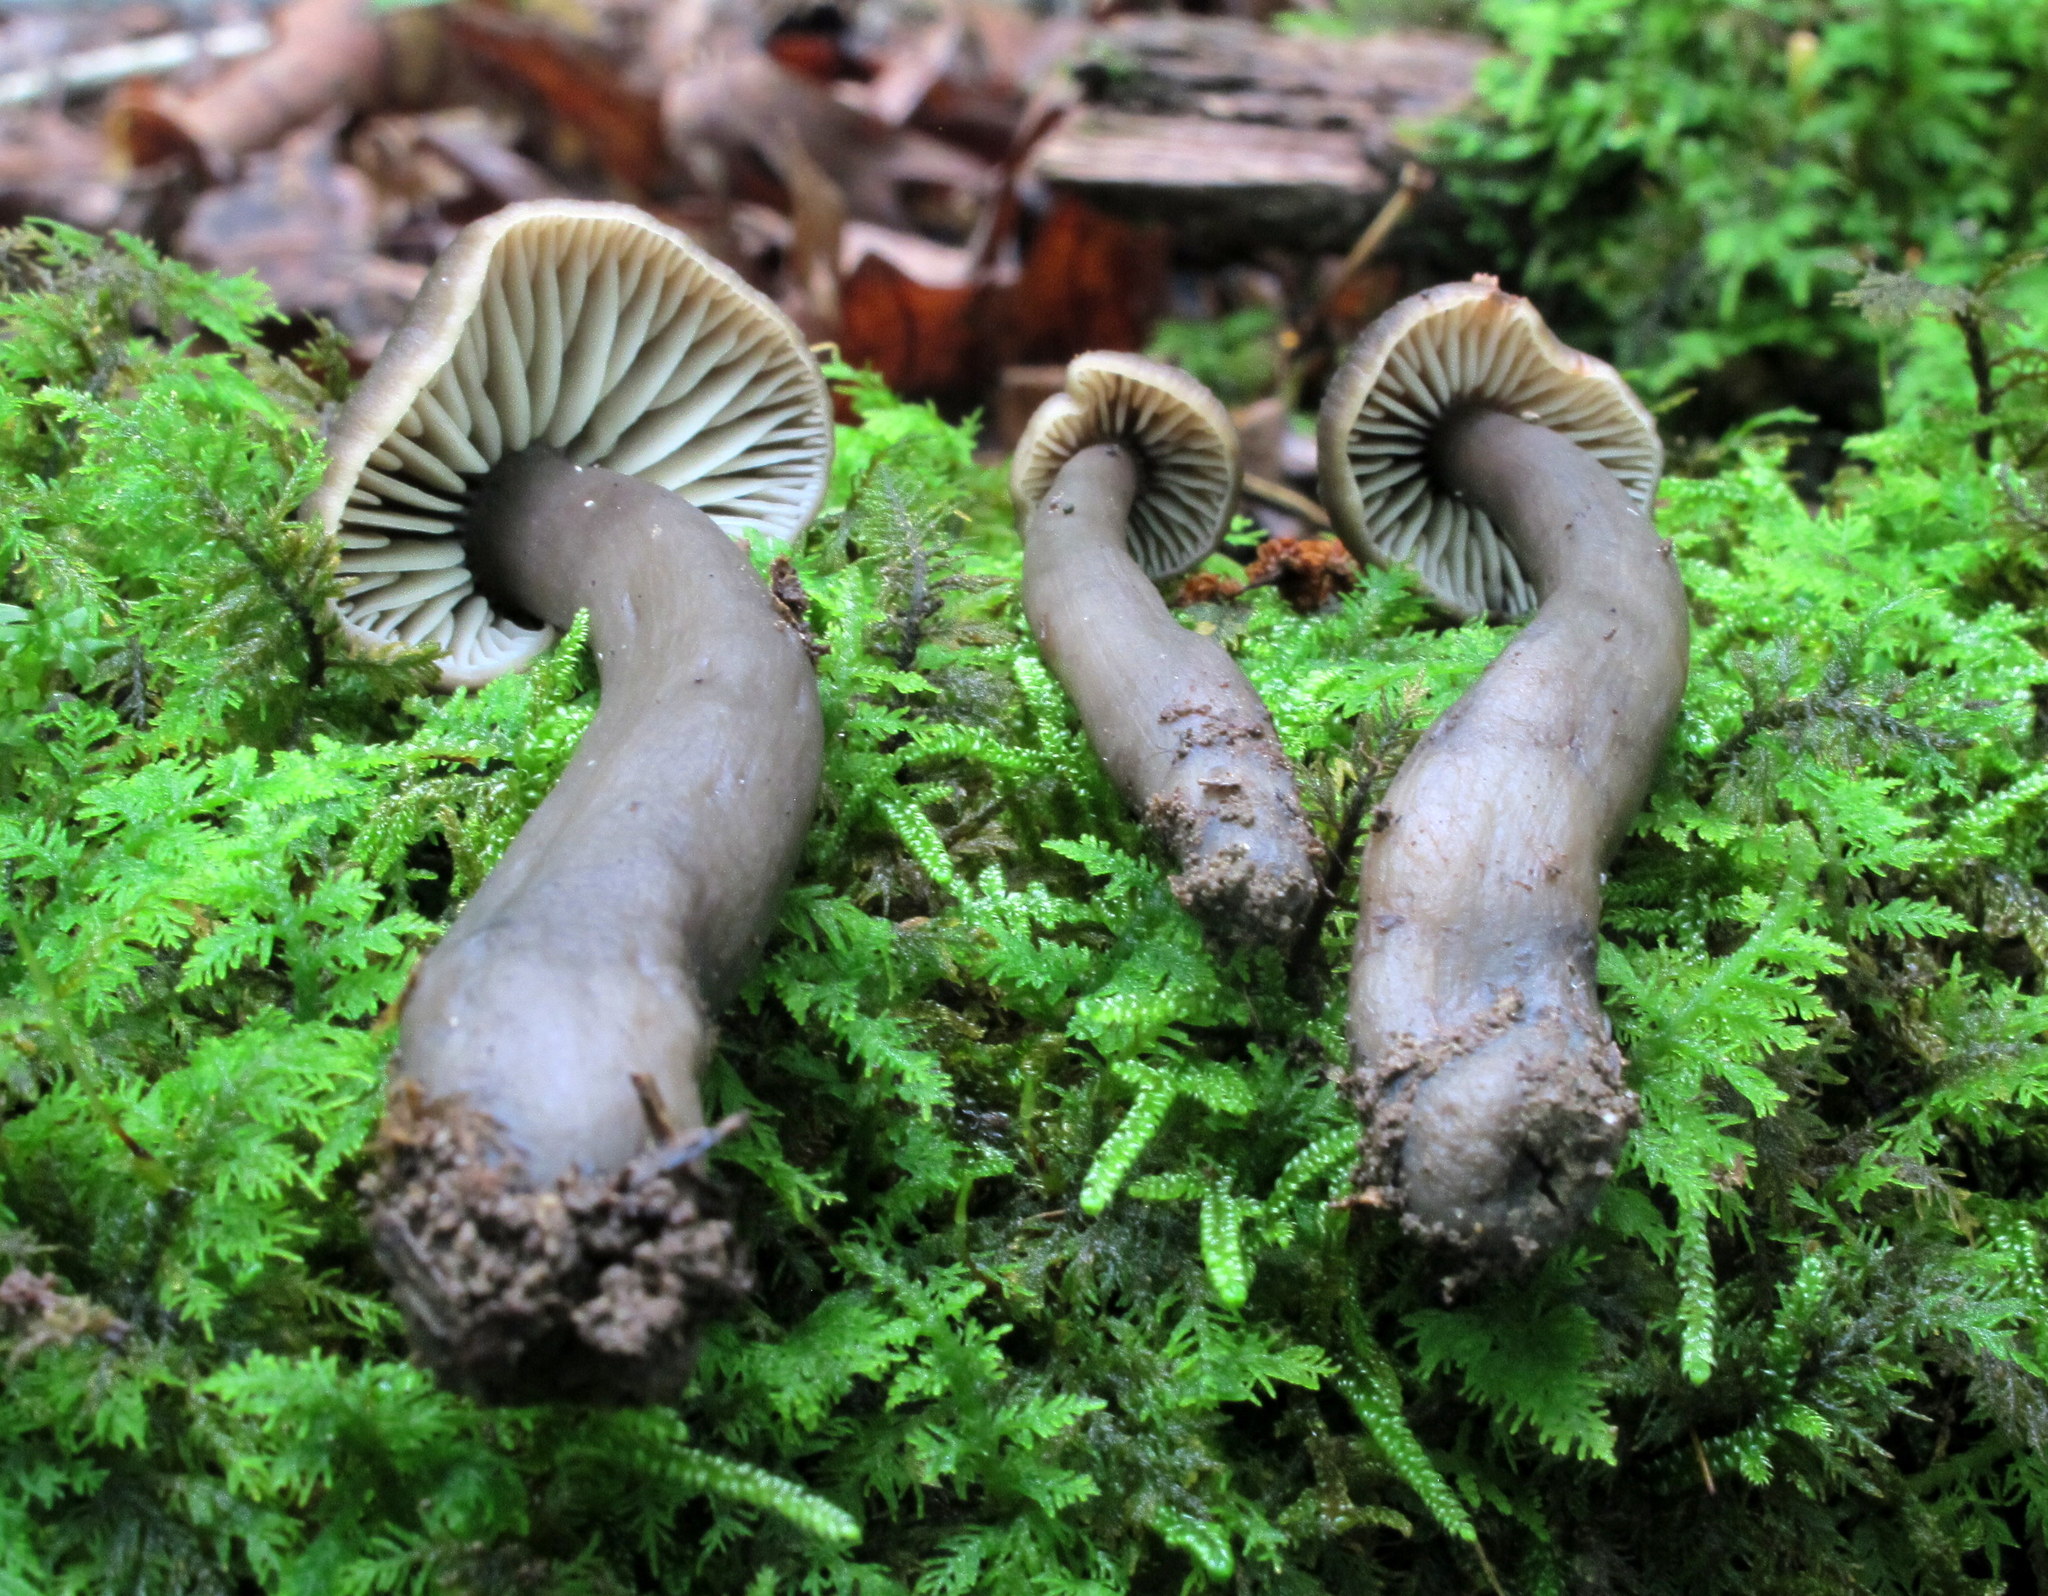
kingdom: Fungi
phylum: Basidiomycota
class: Agaricomycetes
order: Agaricales
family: Hygrophoraceae
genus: Neohygrocybe
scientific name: Neohygrocybe subovina
